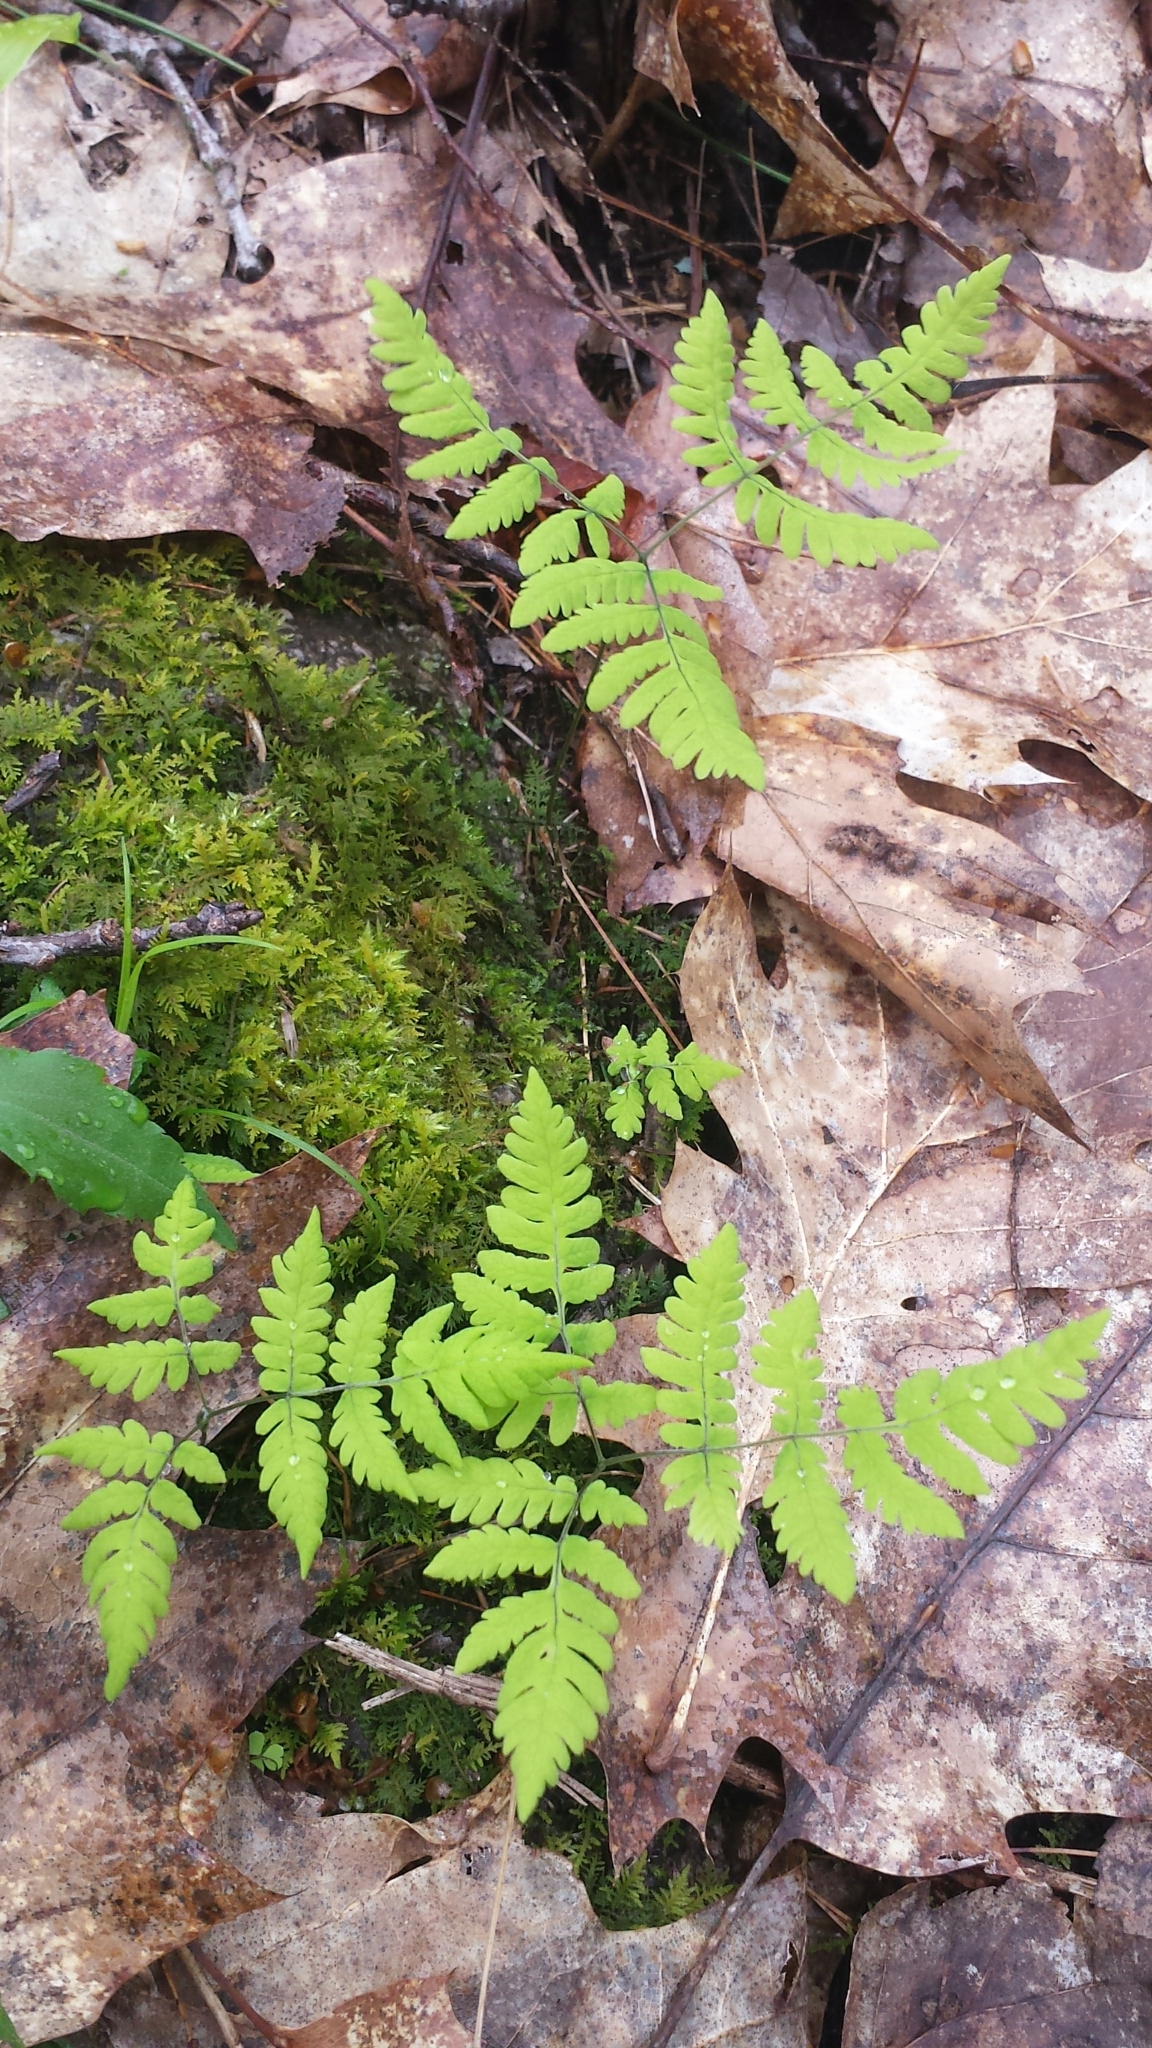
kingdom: Plantae
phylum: Tracheophyta
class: Polypodiopsida
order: Polypodiales
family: Cystopteridaceae
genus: Gymnocarpium
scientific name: Gymnocarpium dryopteris
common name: Oak fern
